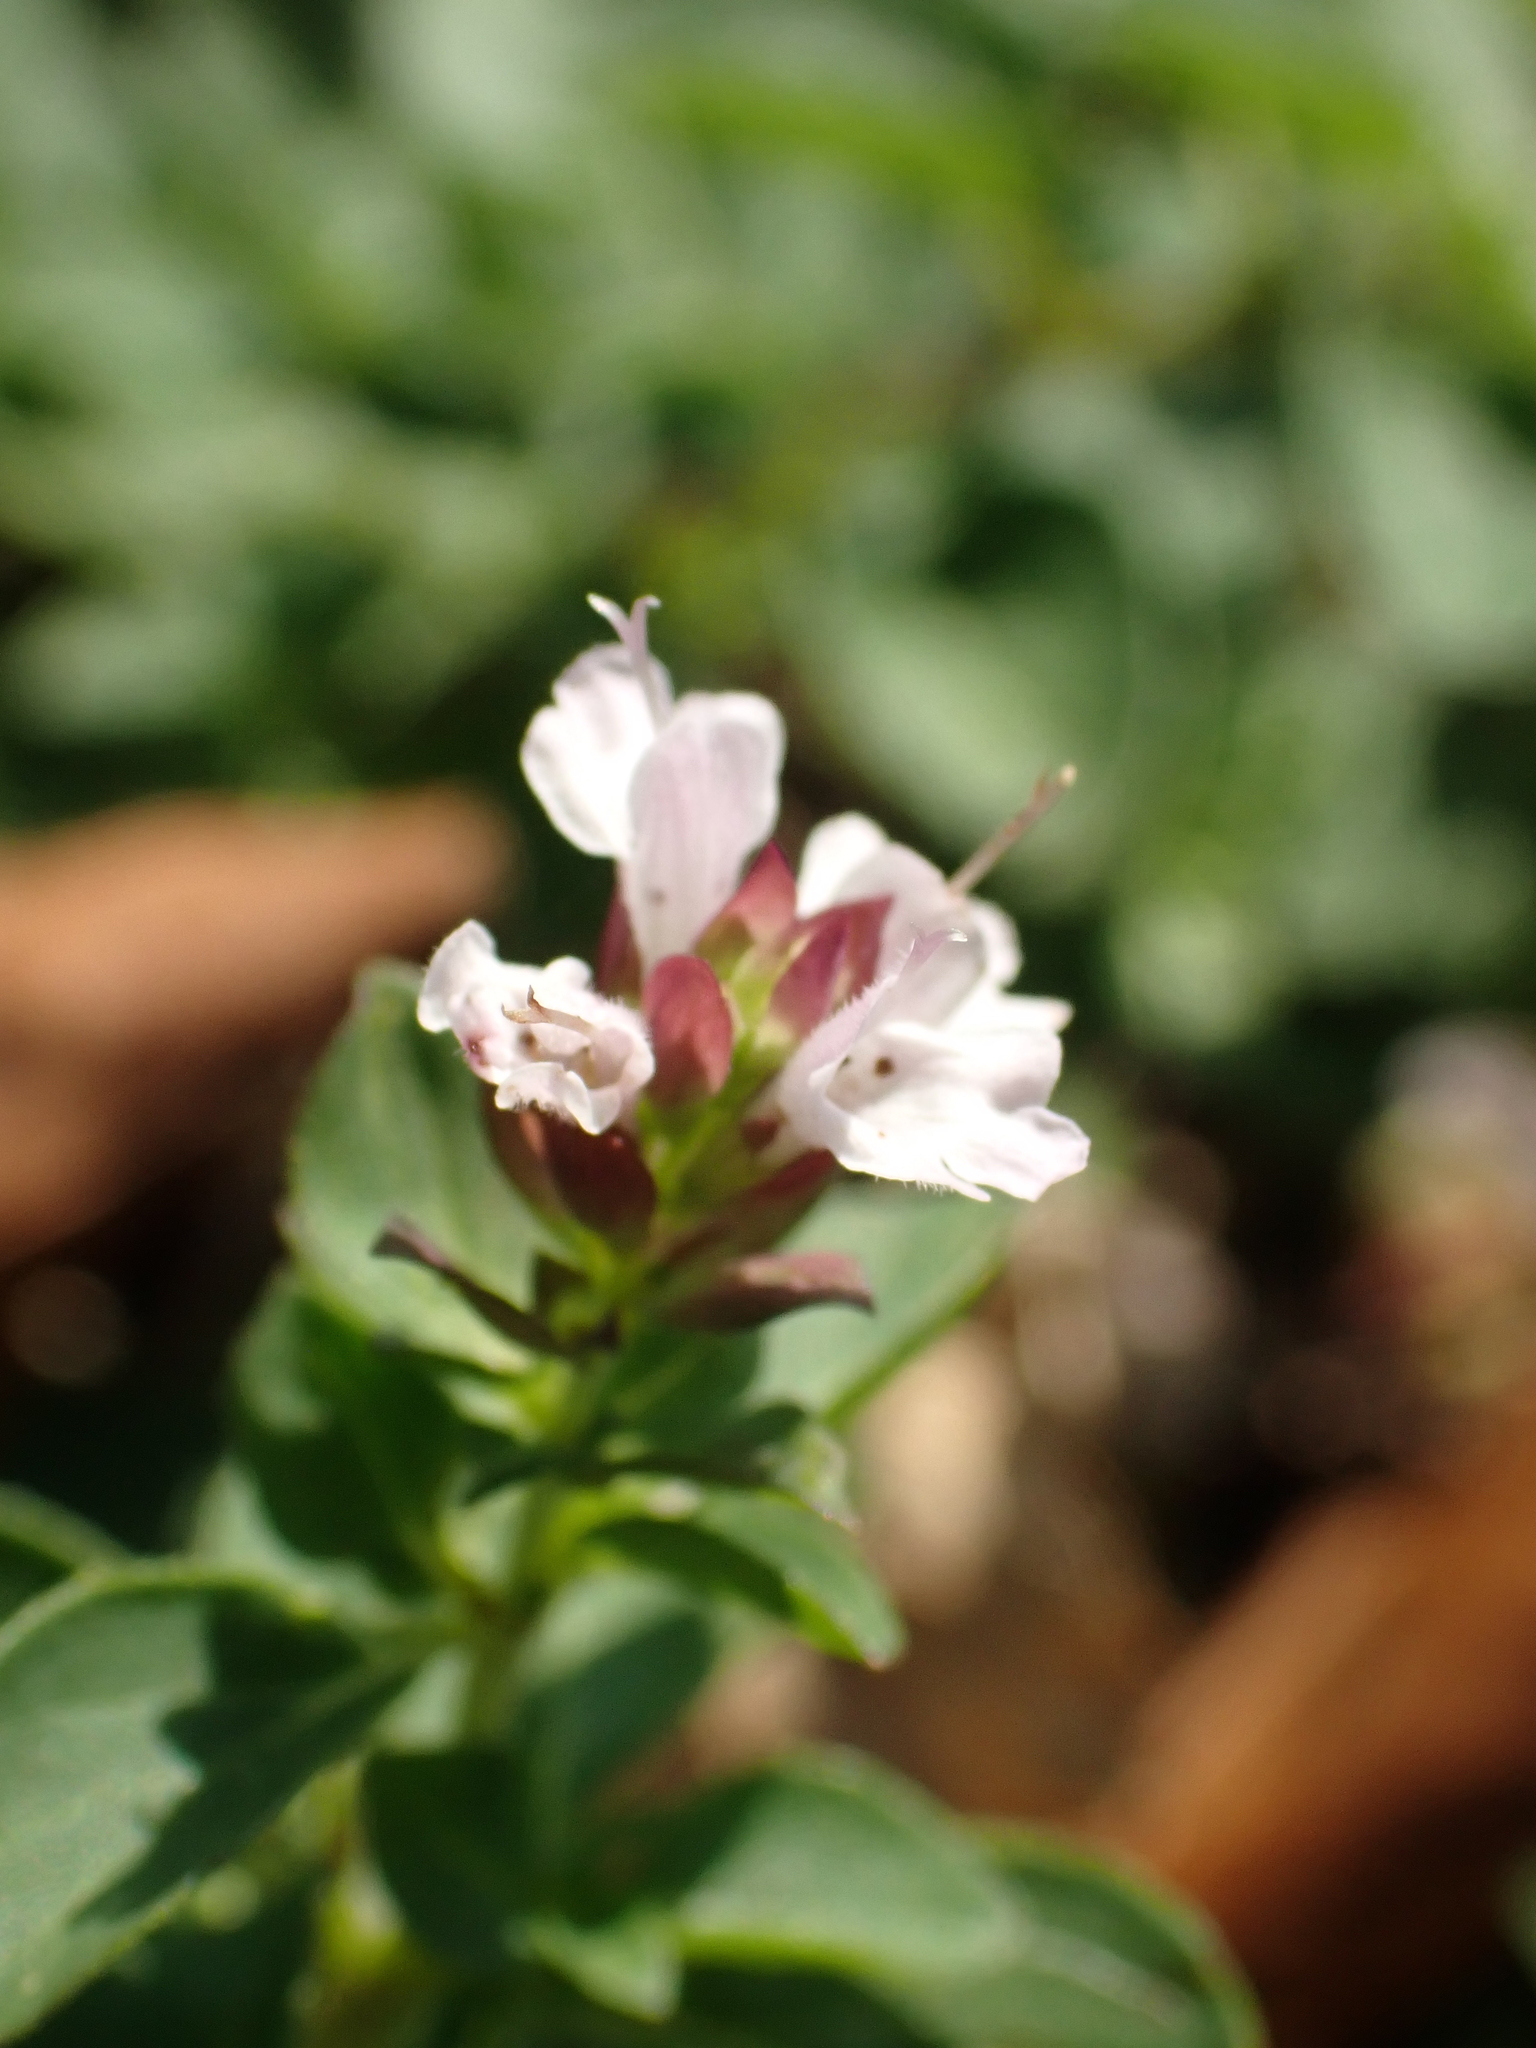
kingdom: Plantae
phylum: Tracheophyta
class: Magnoliopsida
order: Lamiales
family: Lamiaceae
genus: Origanum
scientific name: Origanum vulgare
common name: Wild marjoram
